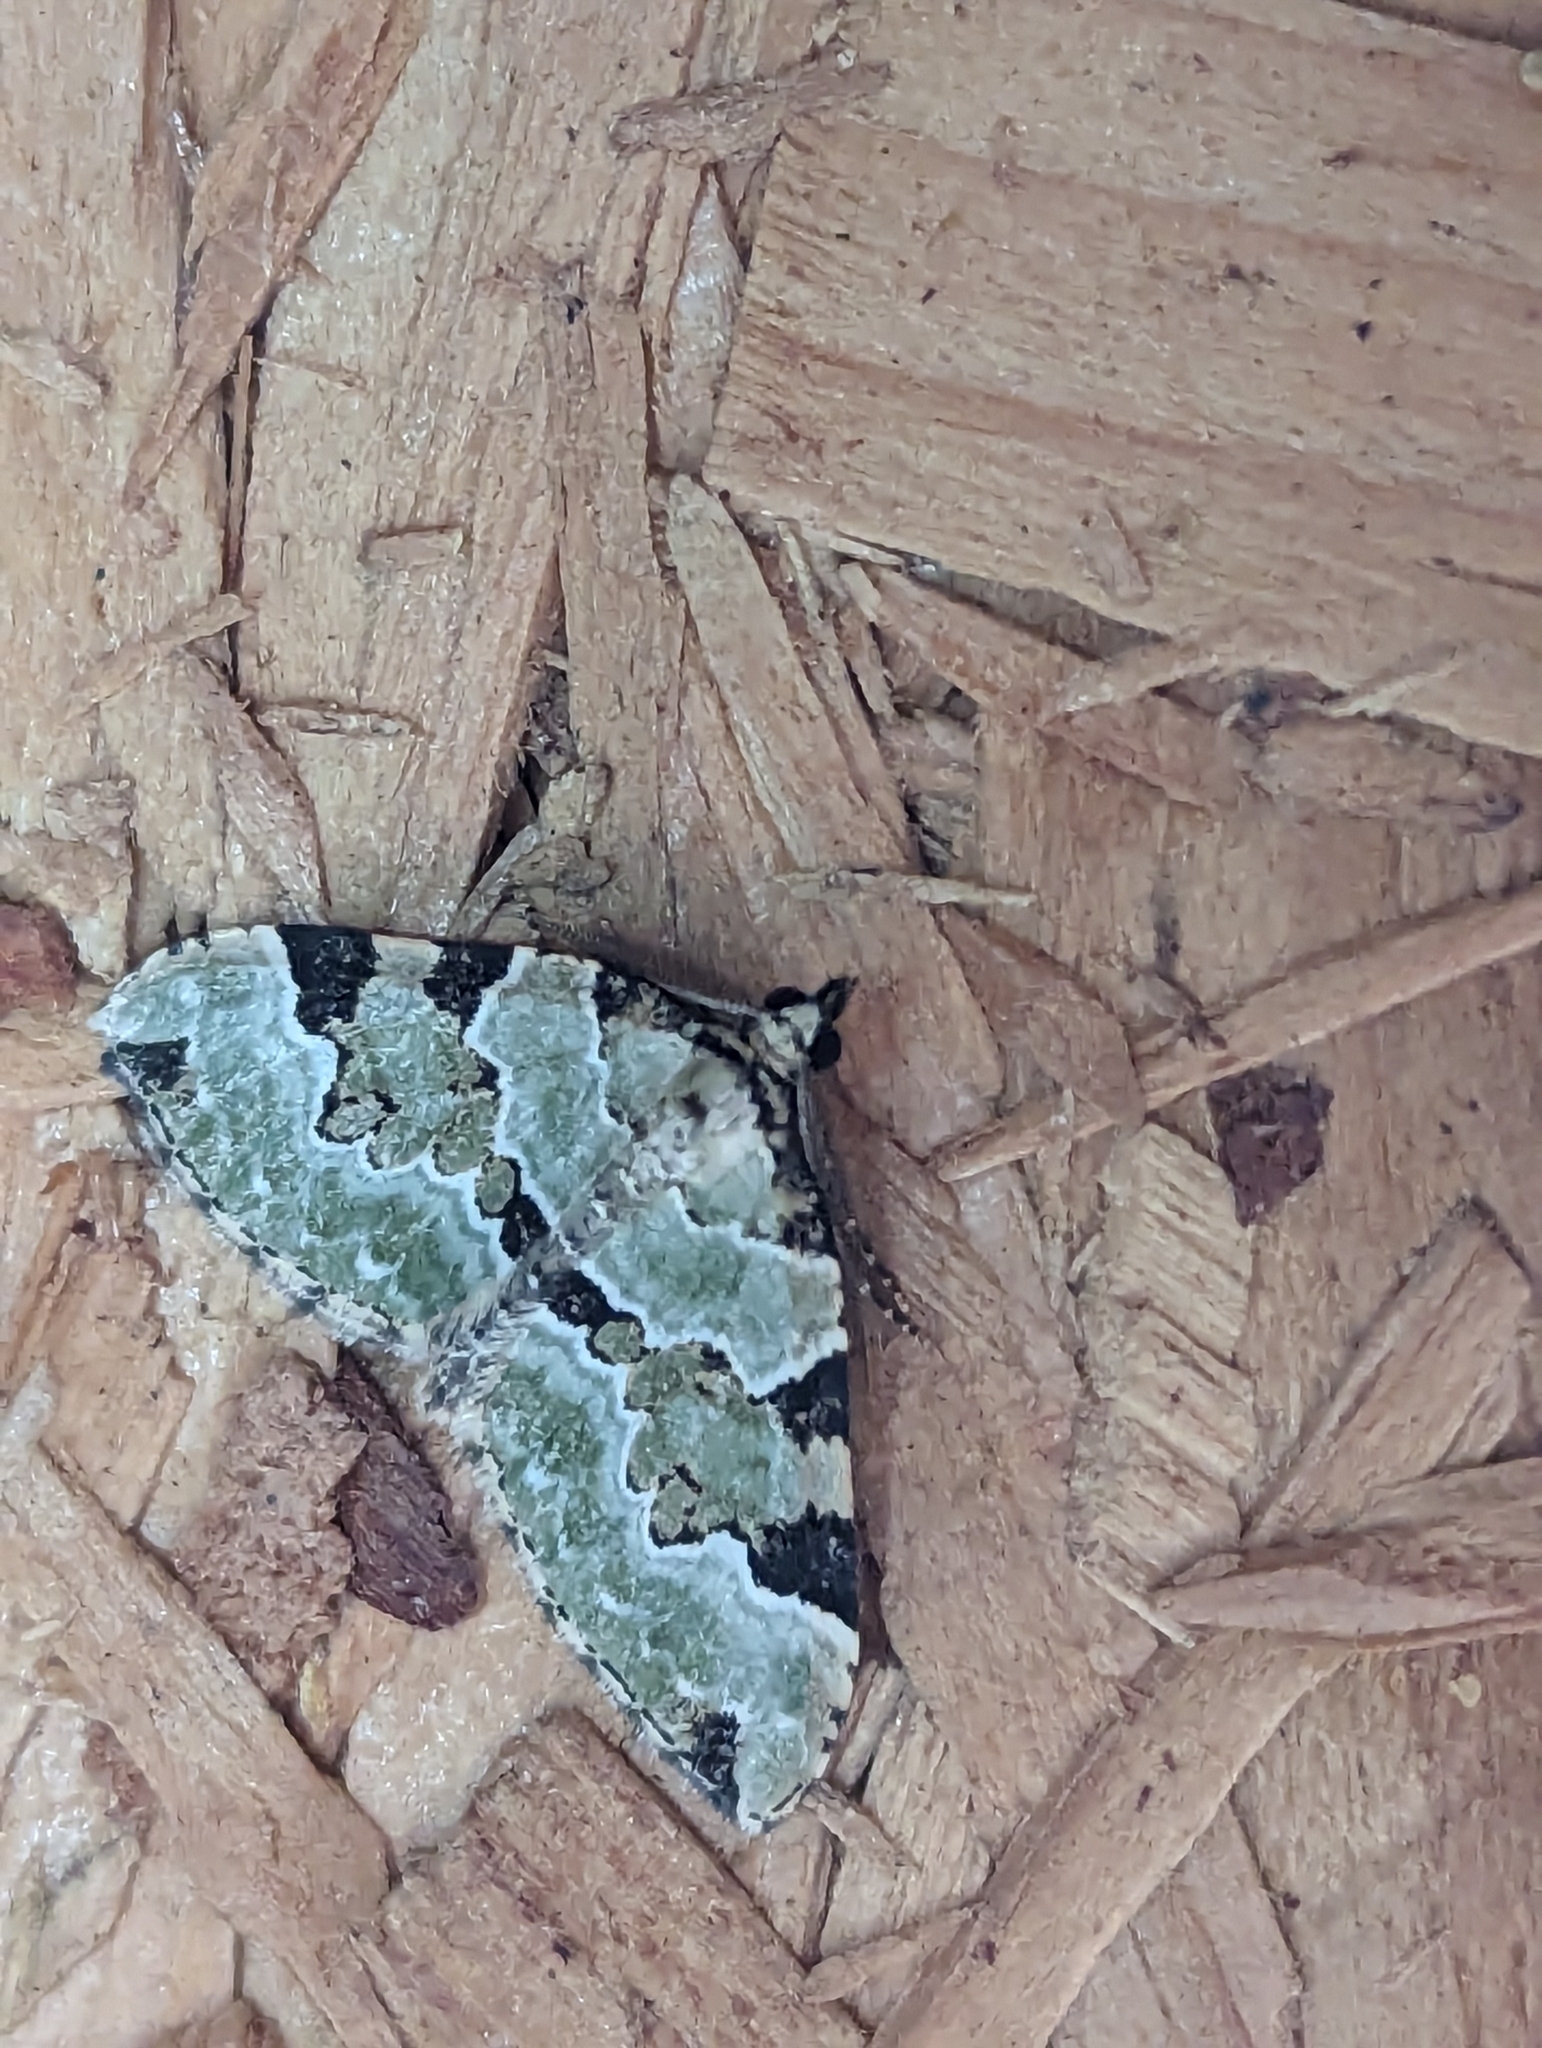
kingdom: Animalia
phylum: Arthropoda
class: Insecta
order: Lepidoptera
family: Geometridae
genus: Colostygia
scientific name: Colostygia pectinataria
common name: Green carpet
